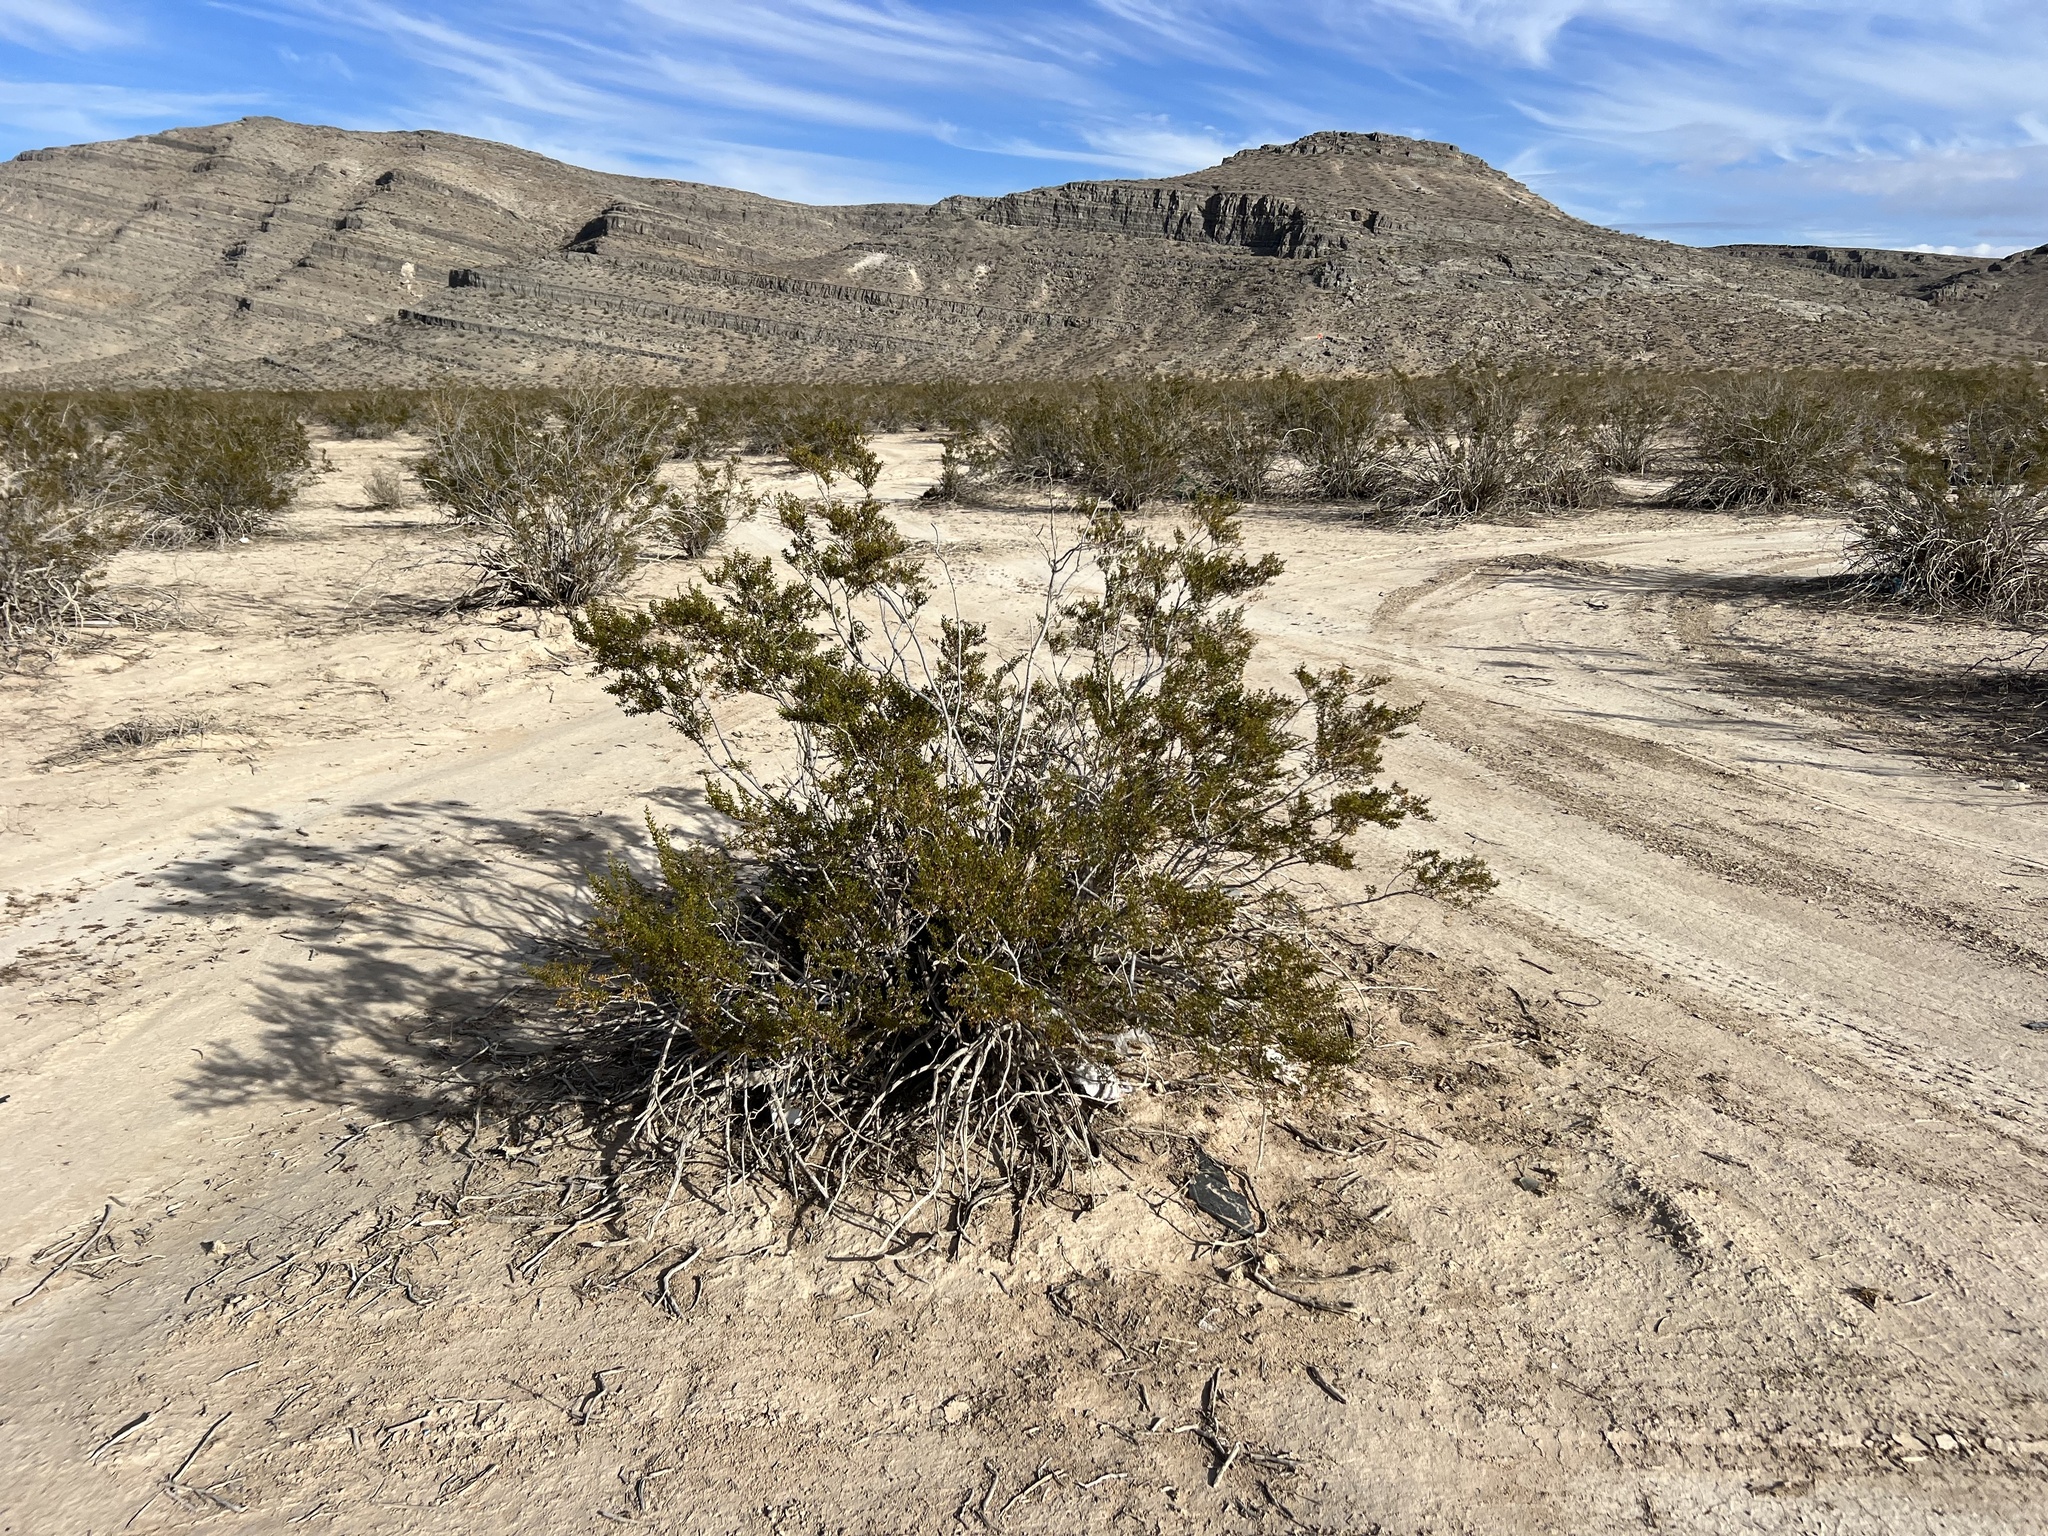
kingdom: Plantae
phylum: Tracheophyta
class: Magnoliopsida
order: Zygophyllales
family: Zygophyllaceae
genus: Larrea
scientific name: Larrea tridentata
